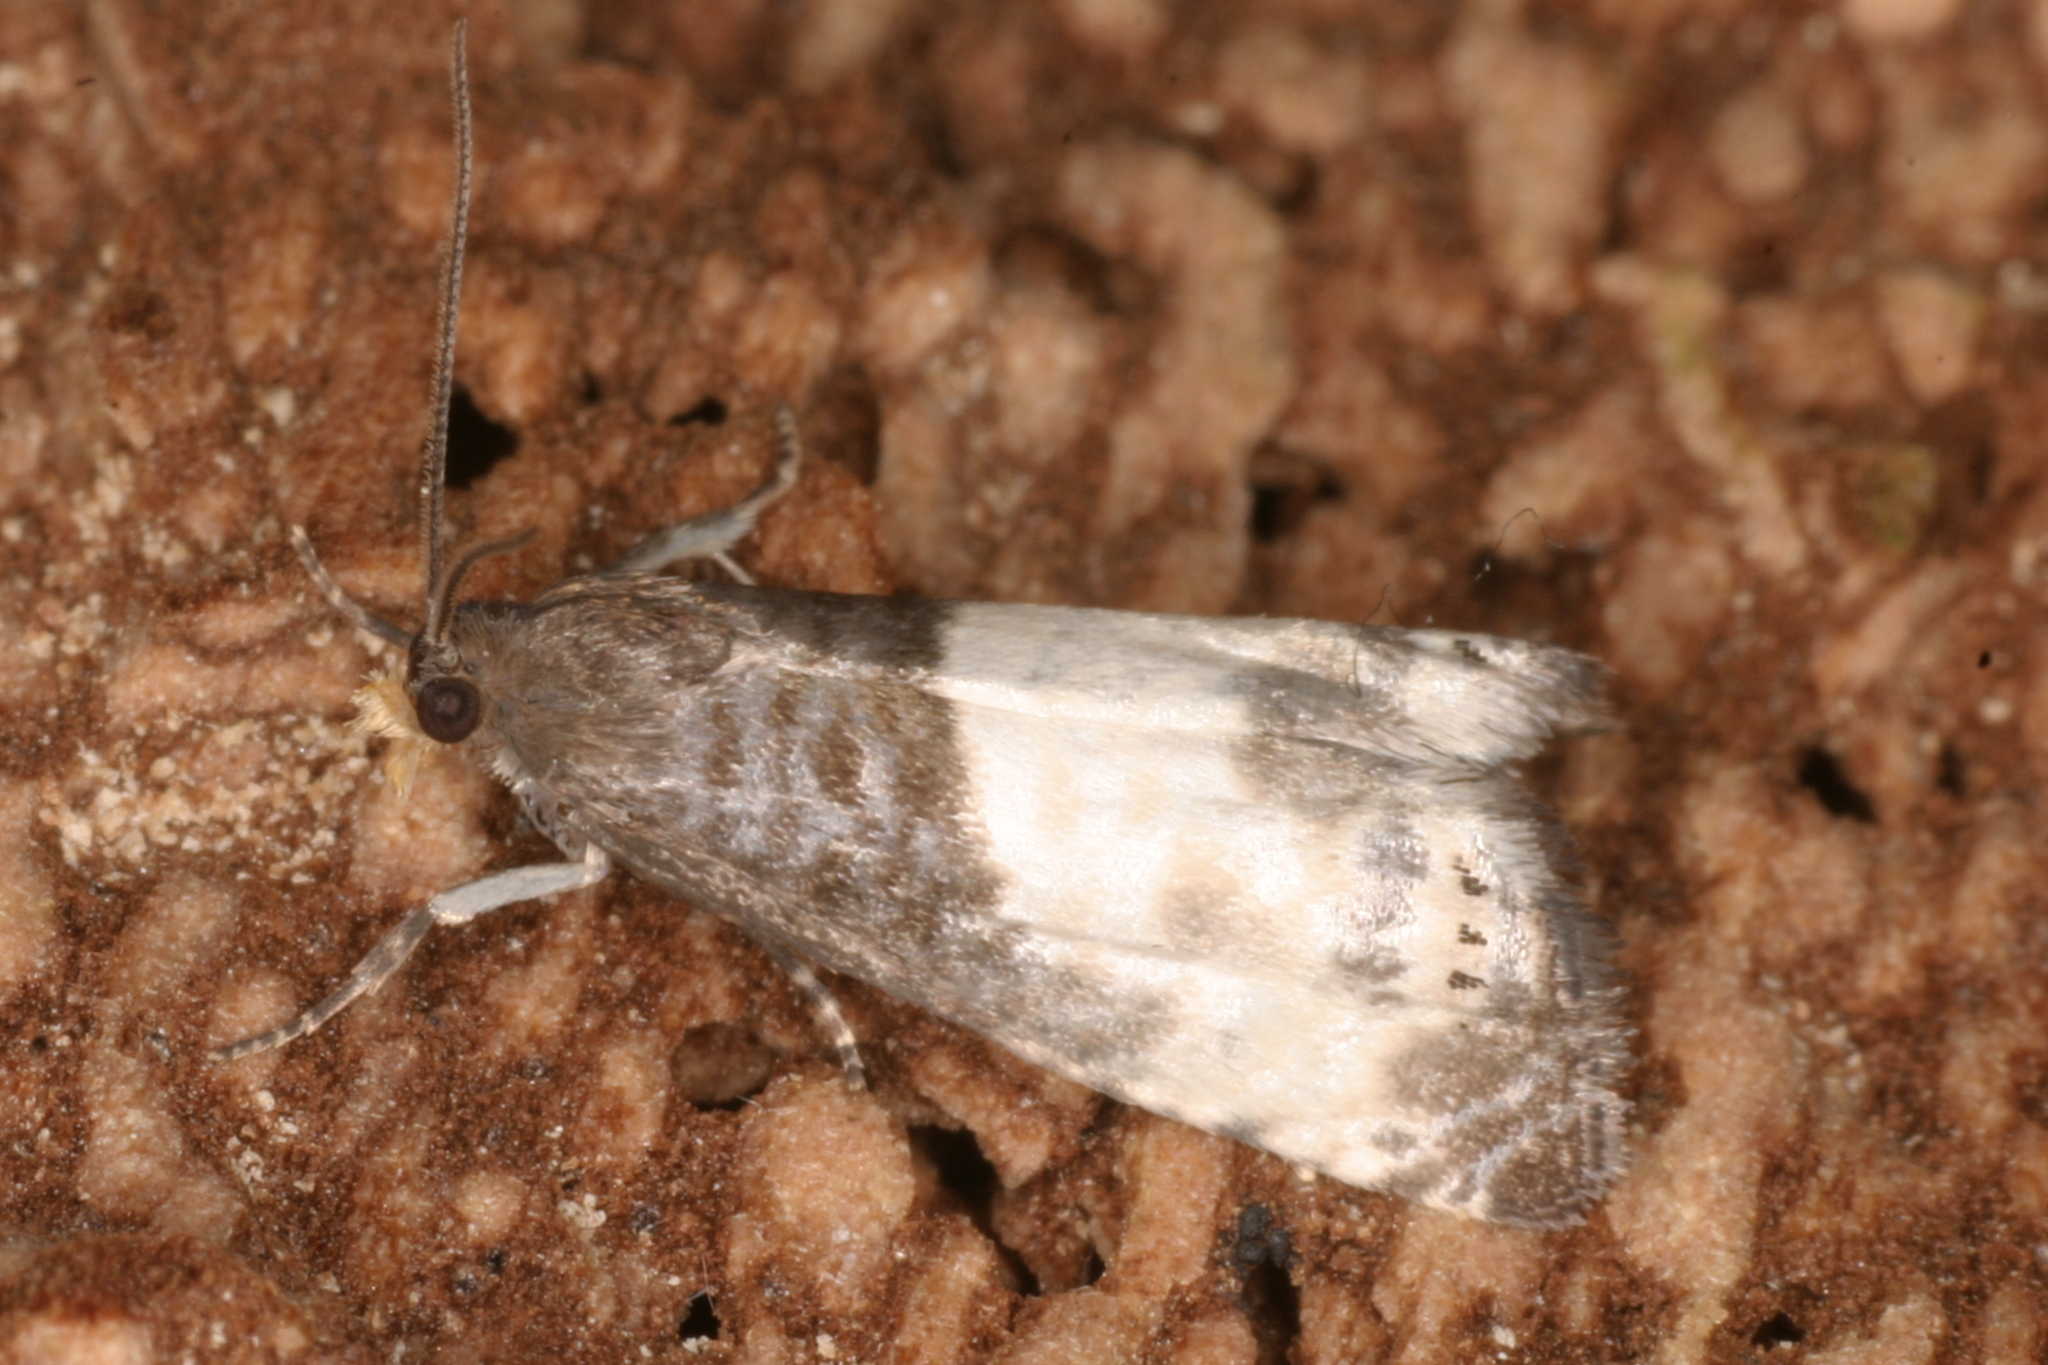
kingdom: Animalia
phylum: Arthropoda
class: Insecta
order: Lepidoptera
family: Tortricidae
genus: Notocelia
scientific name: Notocelia cynosbatella
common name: Yellow-faced bell moth
